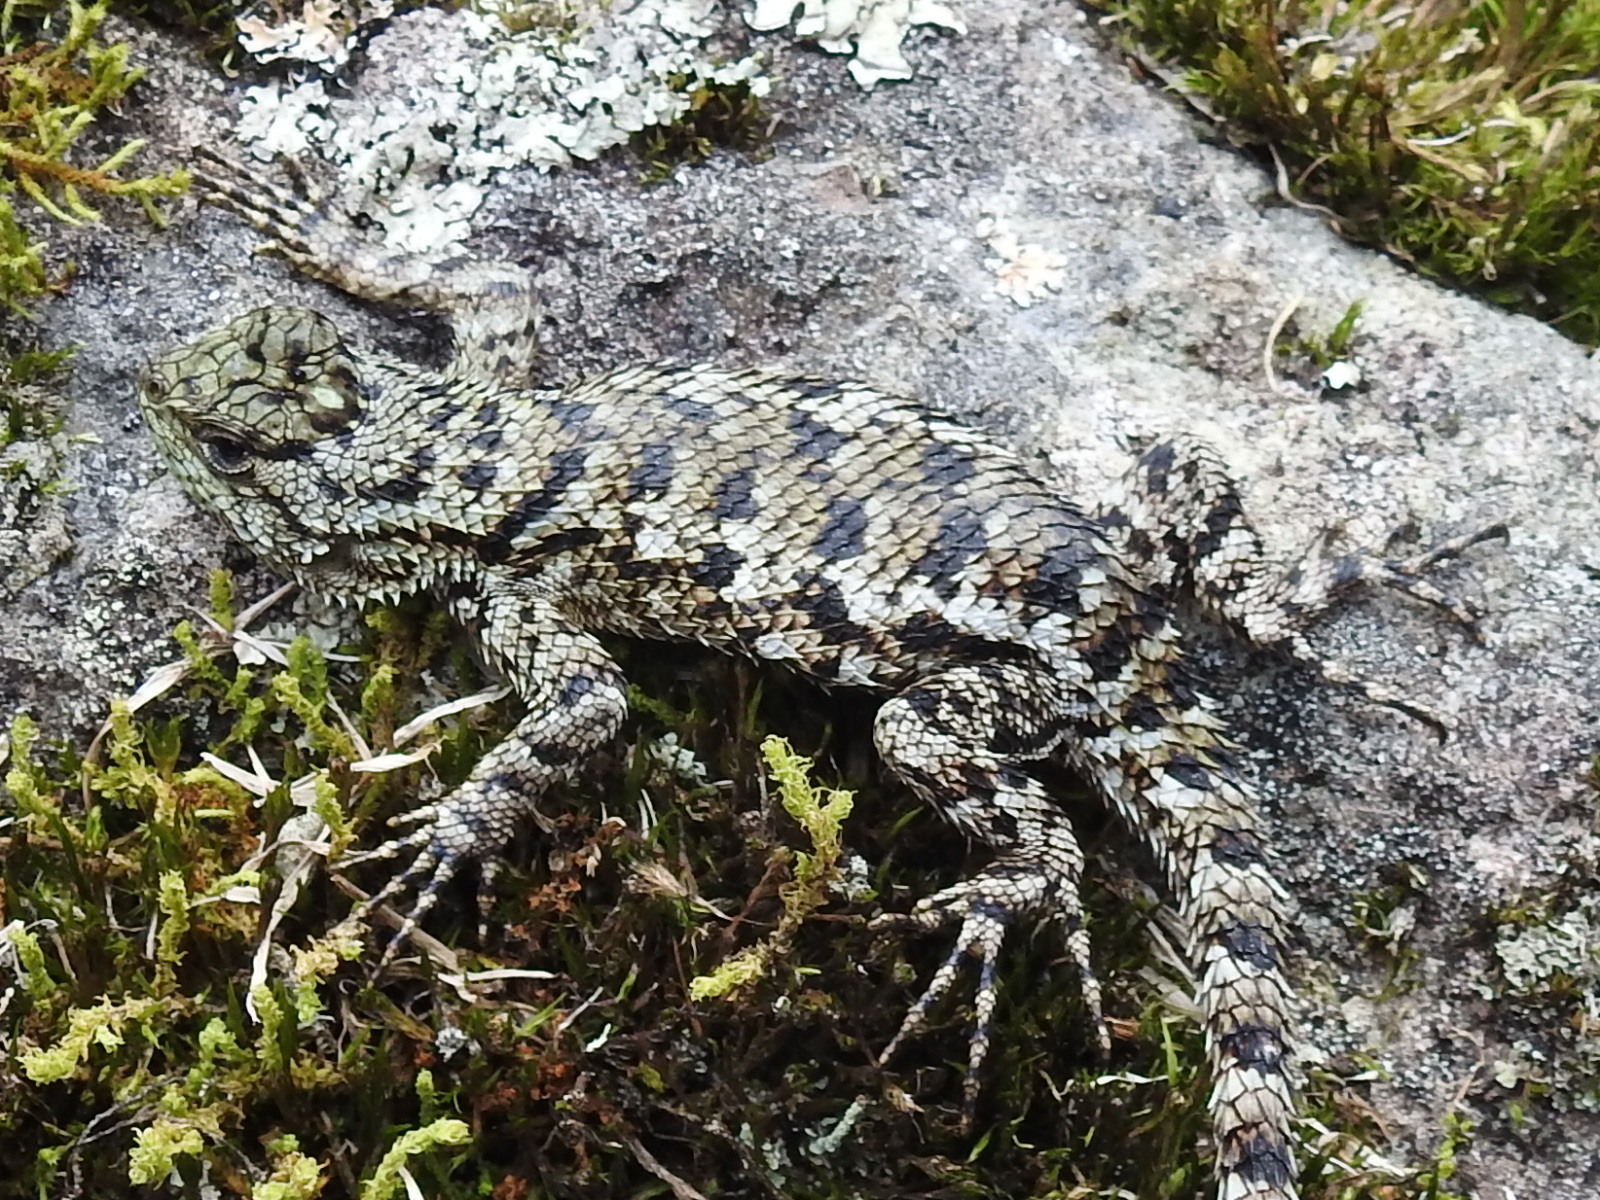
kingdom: Animalia
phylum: Chordata
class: Squamata
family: Phrynosomatidae
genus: Sceloporus
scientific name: Sceloporus malachiticus
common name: Green spiny lizard
